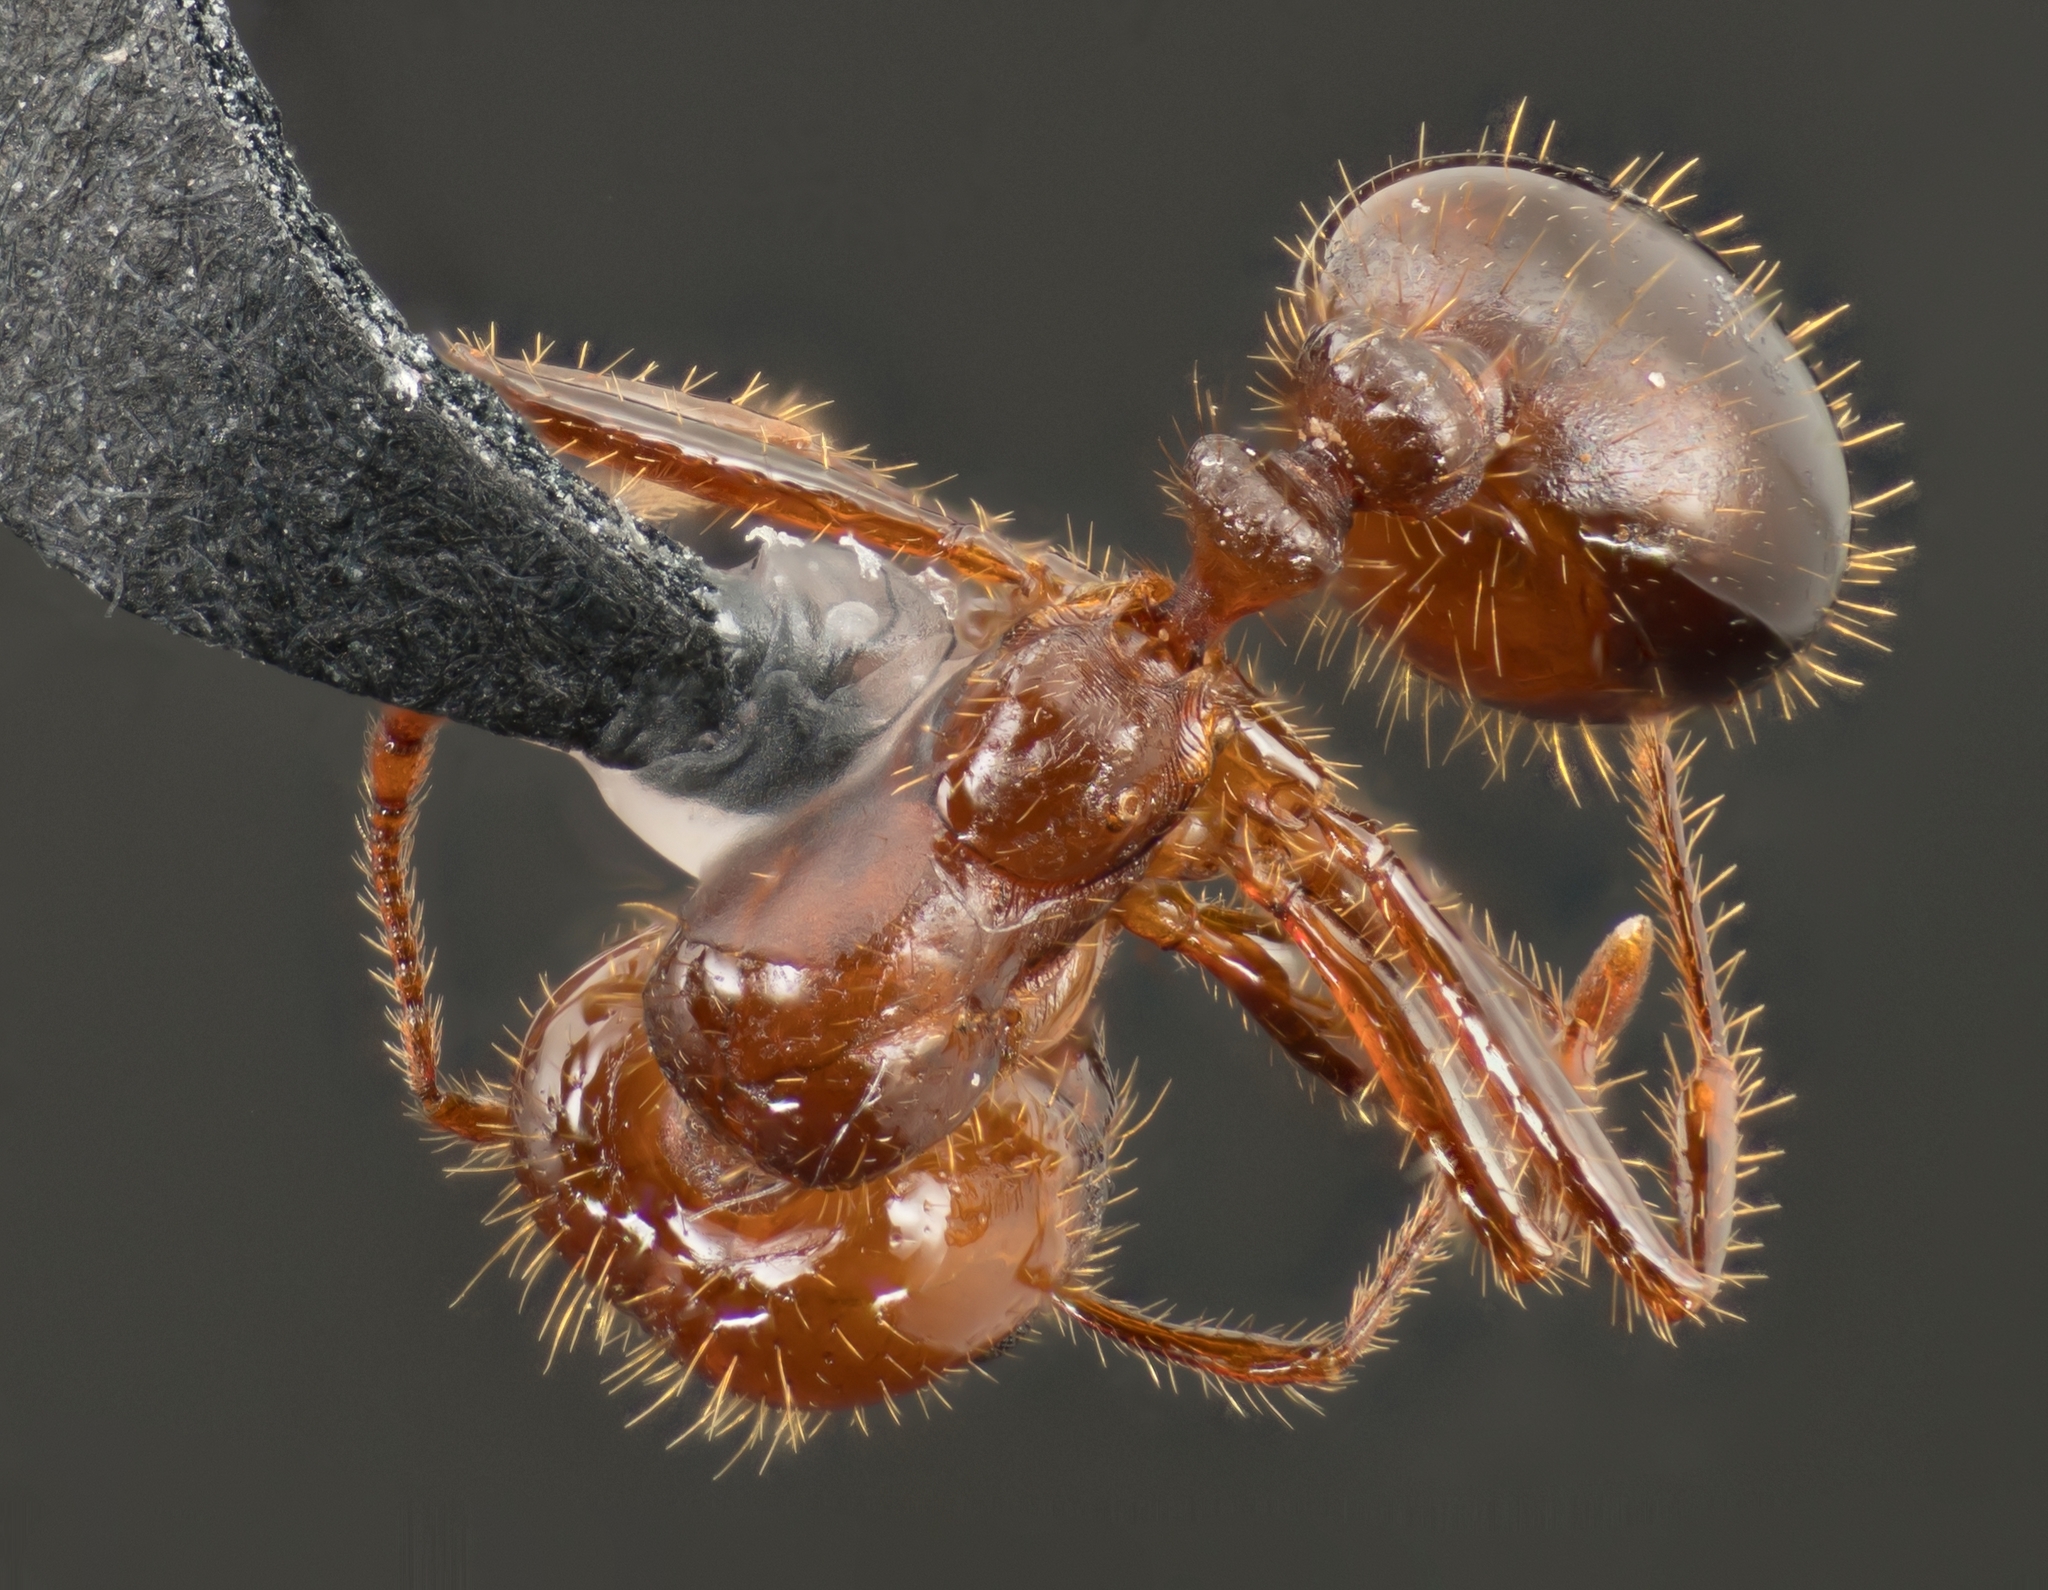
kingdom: Animalia
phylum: Arthropoda
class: Insecta
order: Hymenoptera
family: Formicidae
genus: Solenopsis
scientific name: Solenopsis invicta
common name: Red imported fire ant
